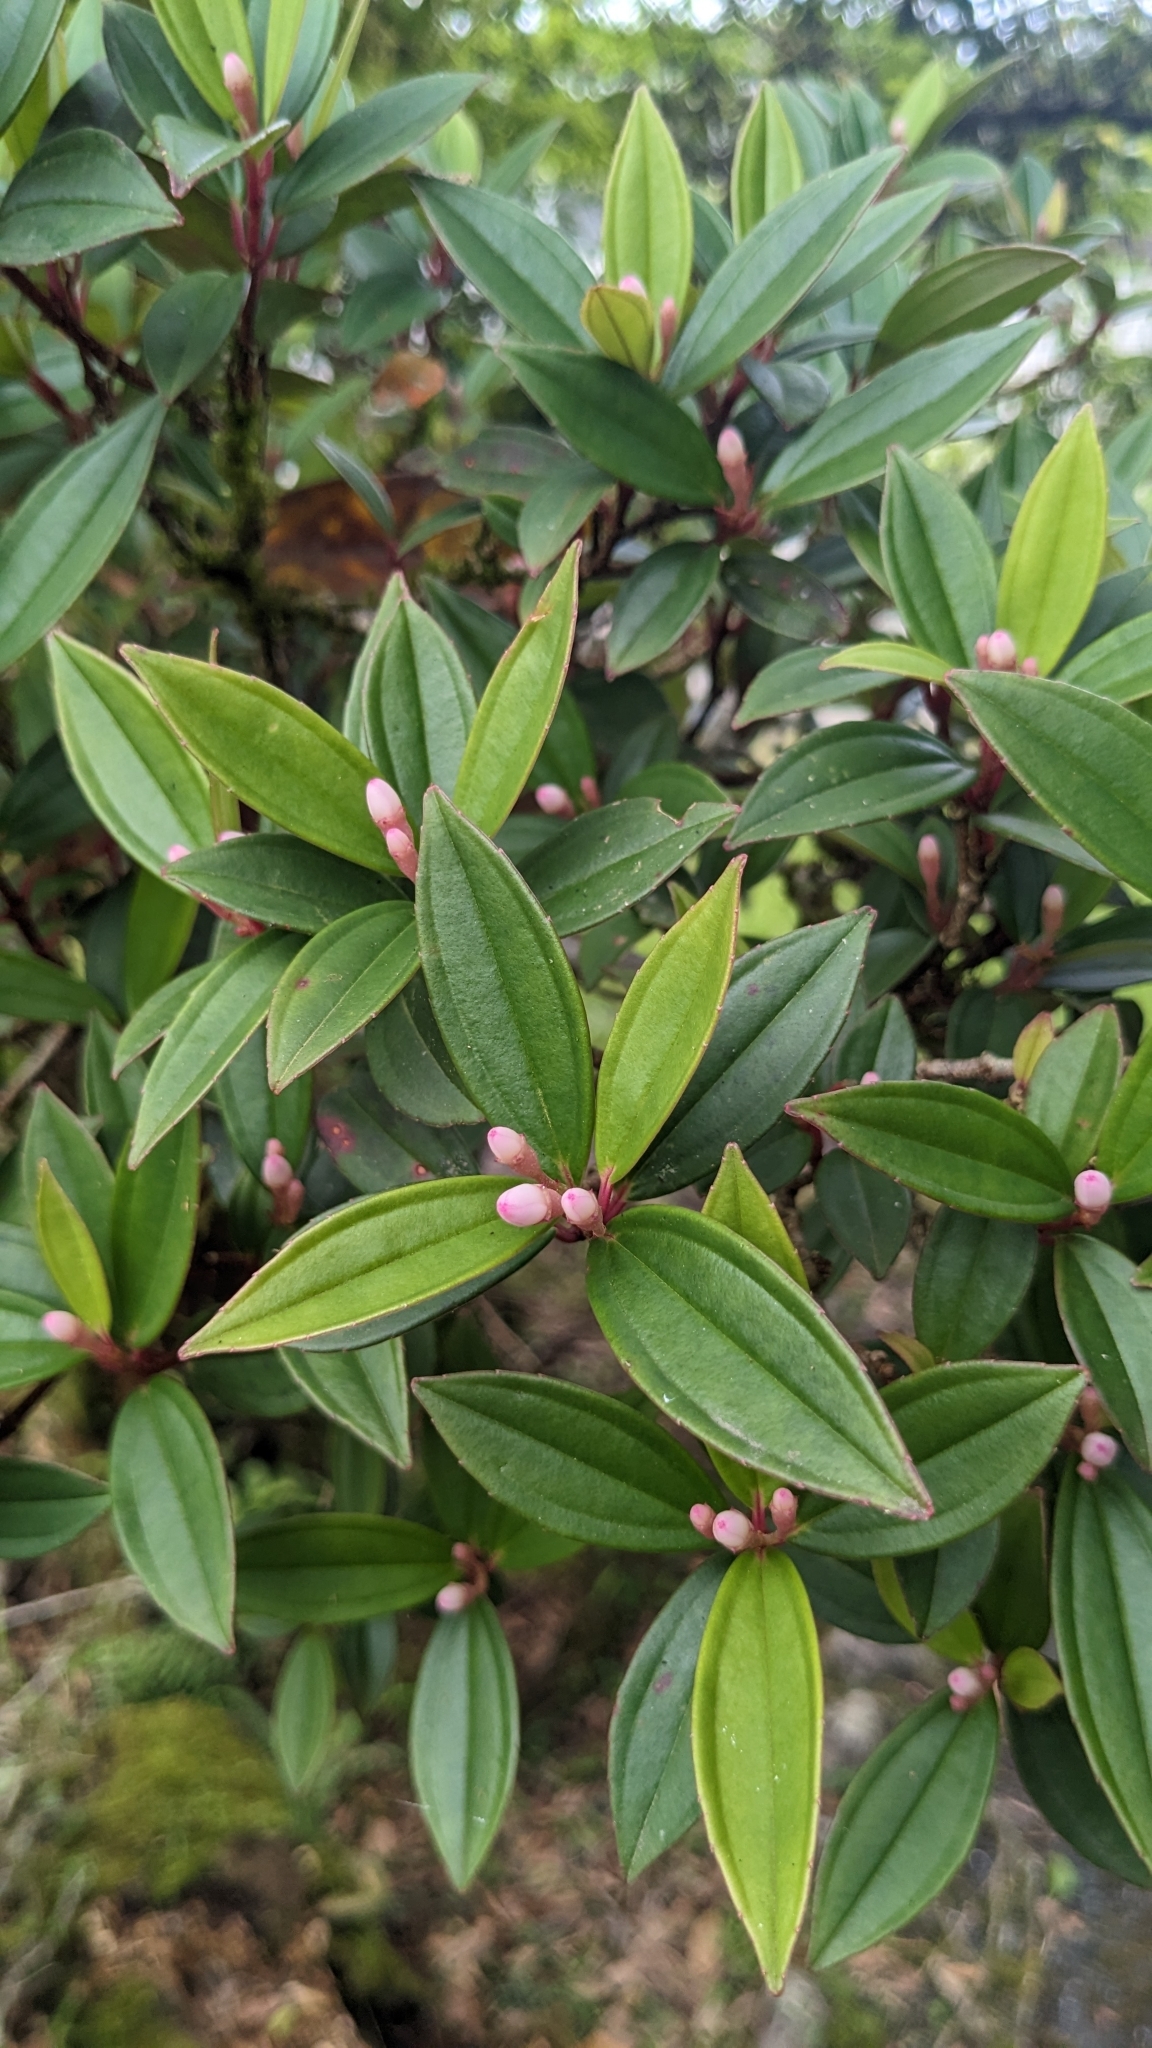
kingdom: Plantae
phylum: Tracheophyta
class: Magnoliopsida
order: Myrtales
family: Melastomataceae
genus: Medinilla
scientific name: Medinilla fengii
